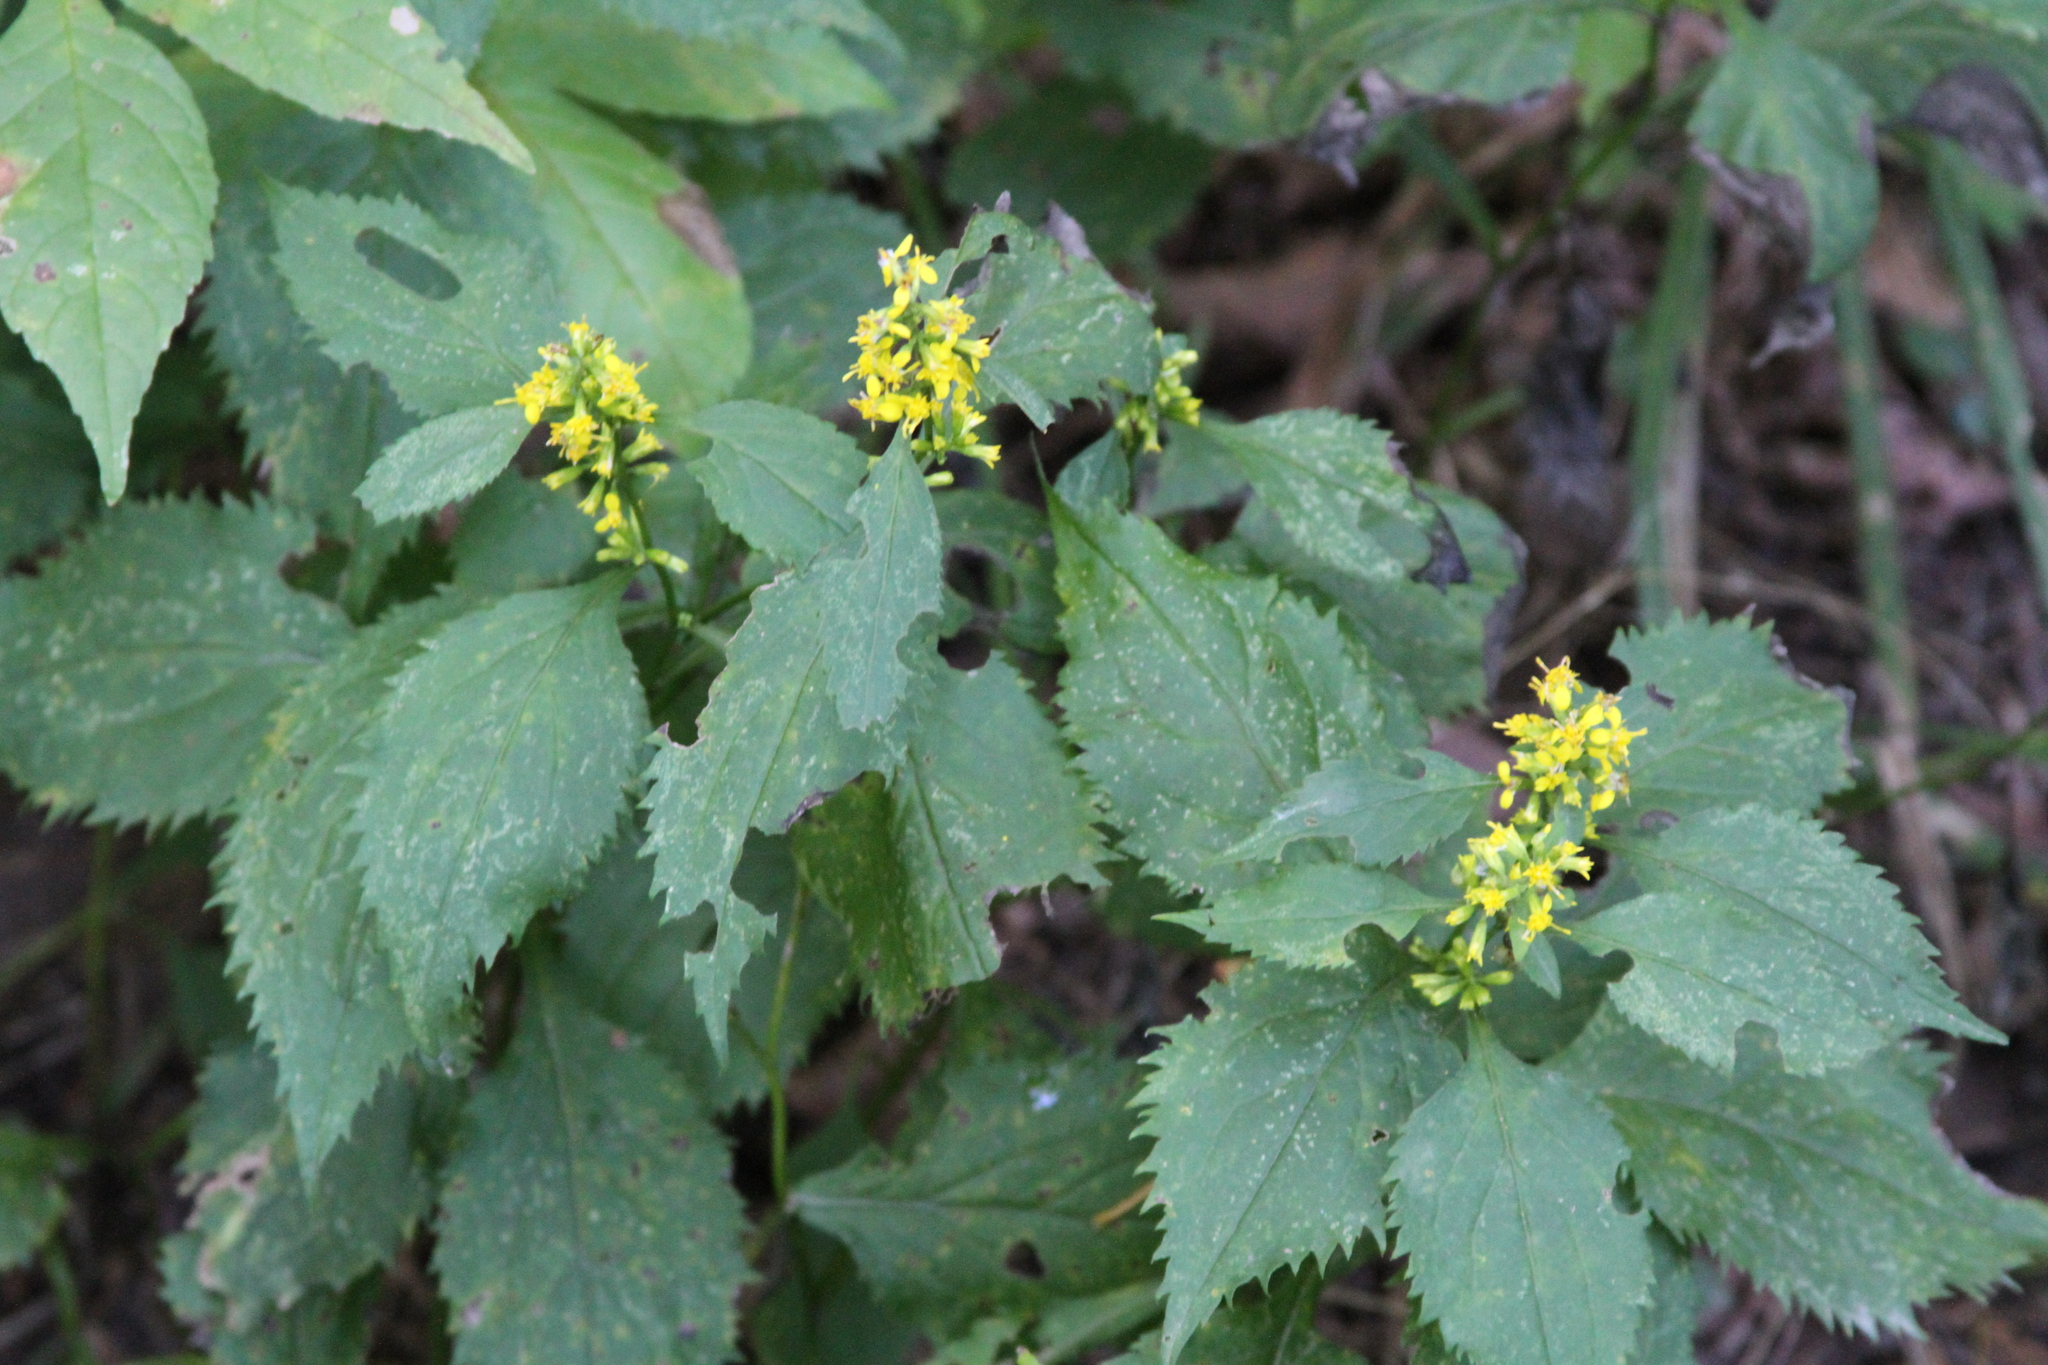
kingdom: Plantae
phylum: Tracheophyta
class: Magnoliopsida
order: Asterales
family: Asteraceae
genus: Solidago
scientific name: Solidago flexicaulis
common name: Zig-zag goldenrod
